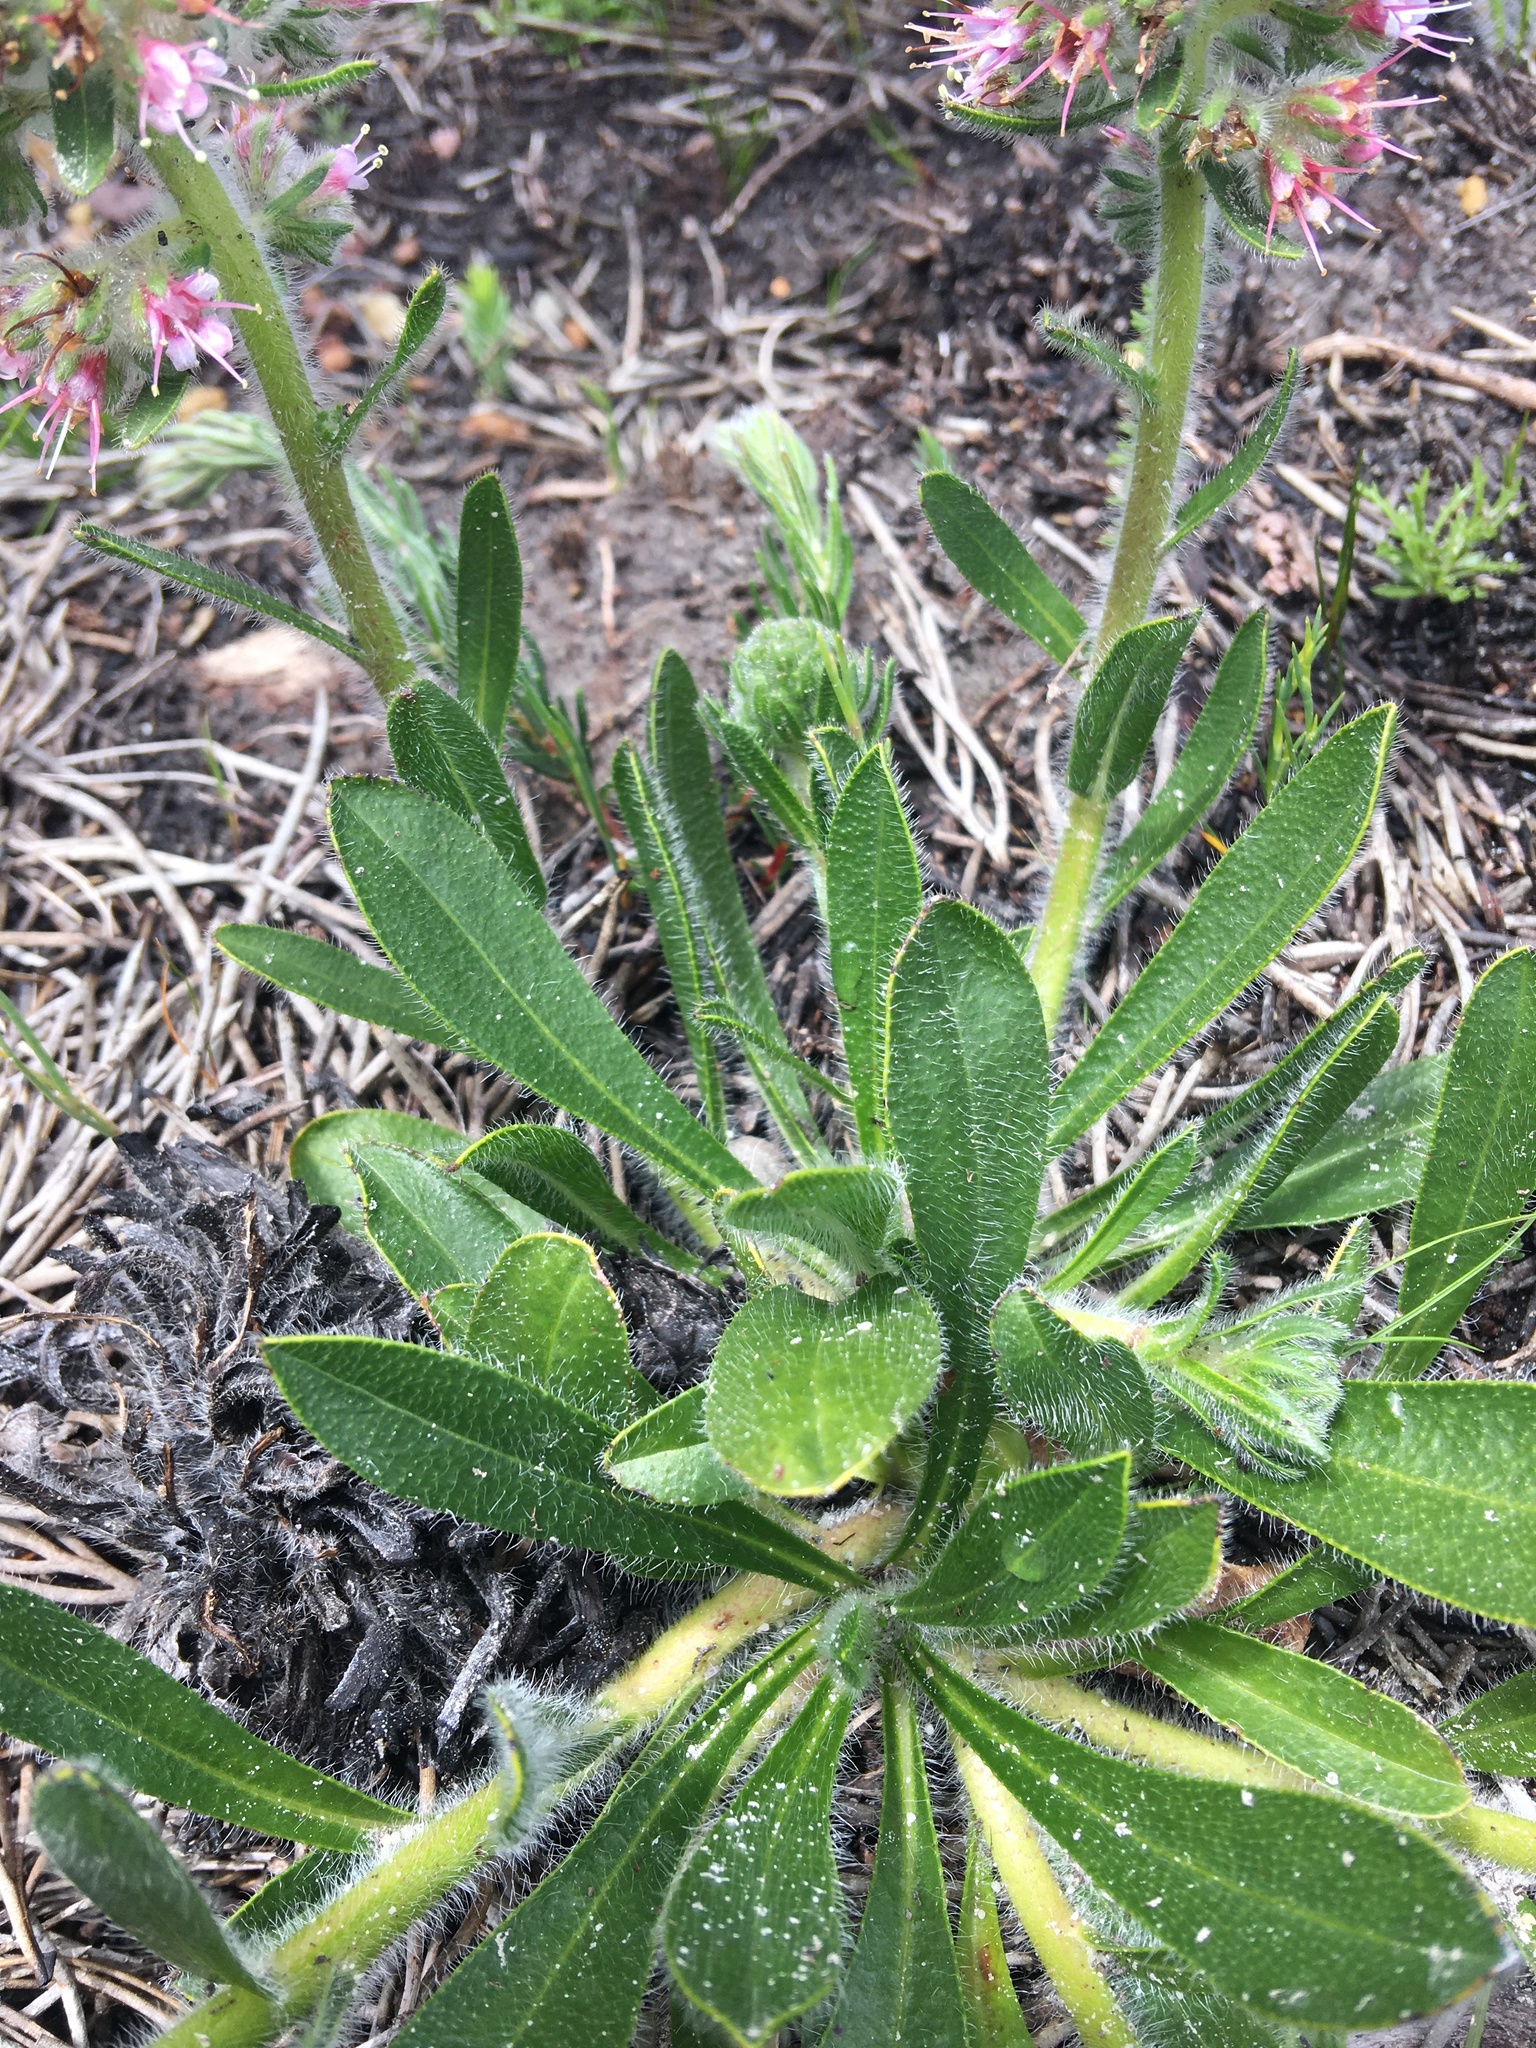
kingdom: Plantae
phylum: Tracheophyta
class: Magnoliopsida
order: Boraginales
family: Boraginaceae
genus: Lobostemon
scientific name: Lobostemon ecklonianus
